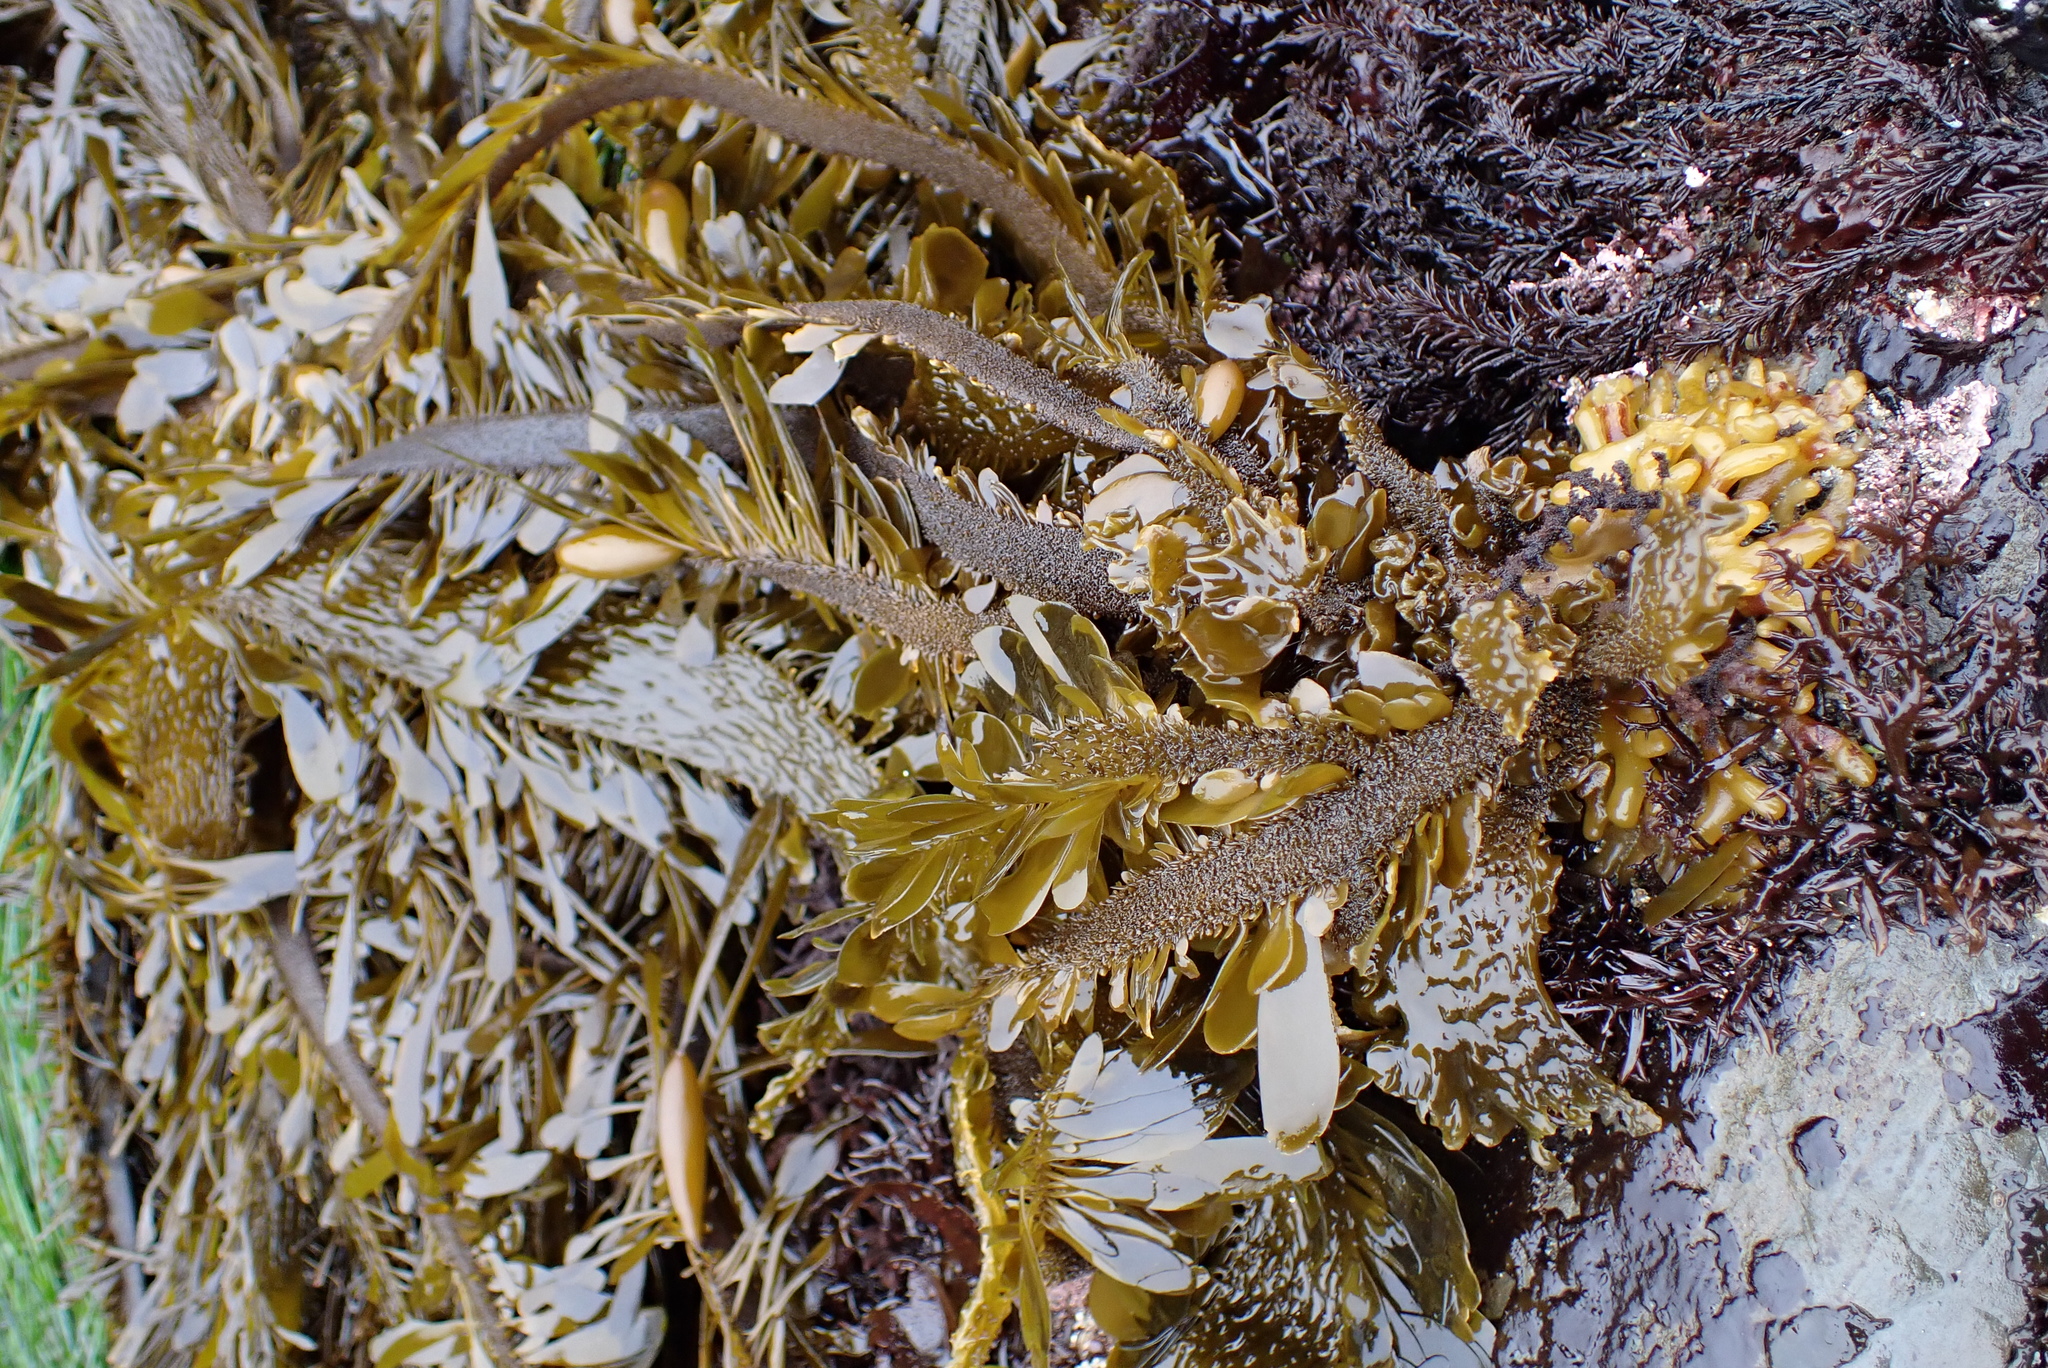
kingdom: Chromista
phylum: Ochrophyta
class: Phaeophyceae
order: Laminariales
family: Lessoniaceae
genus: Egregia
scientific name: Egregia menziesii
